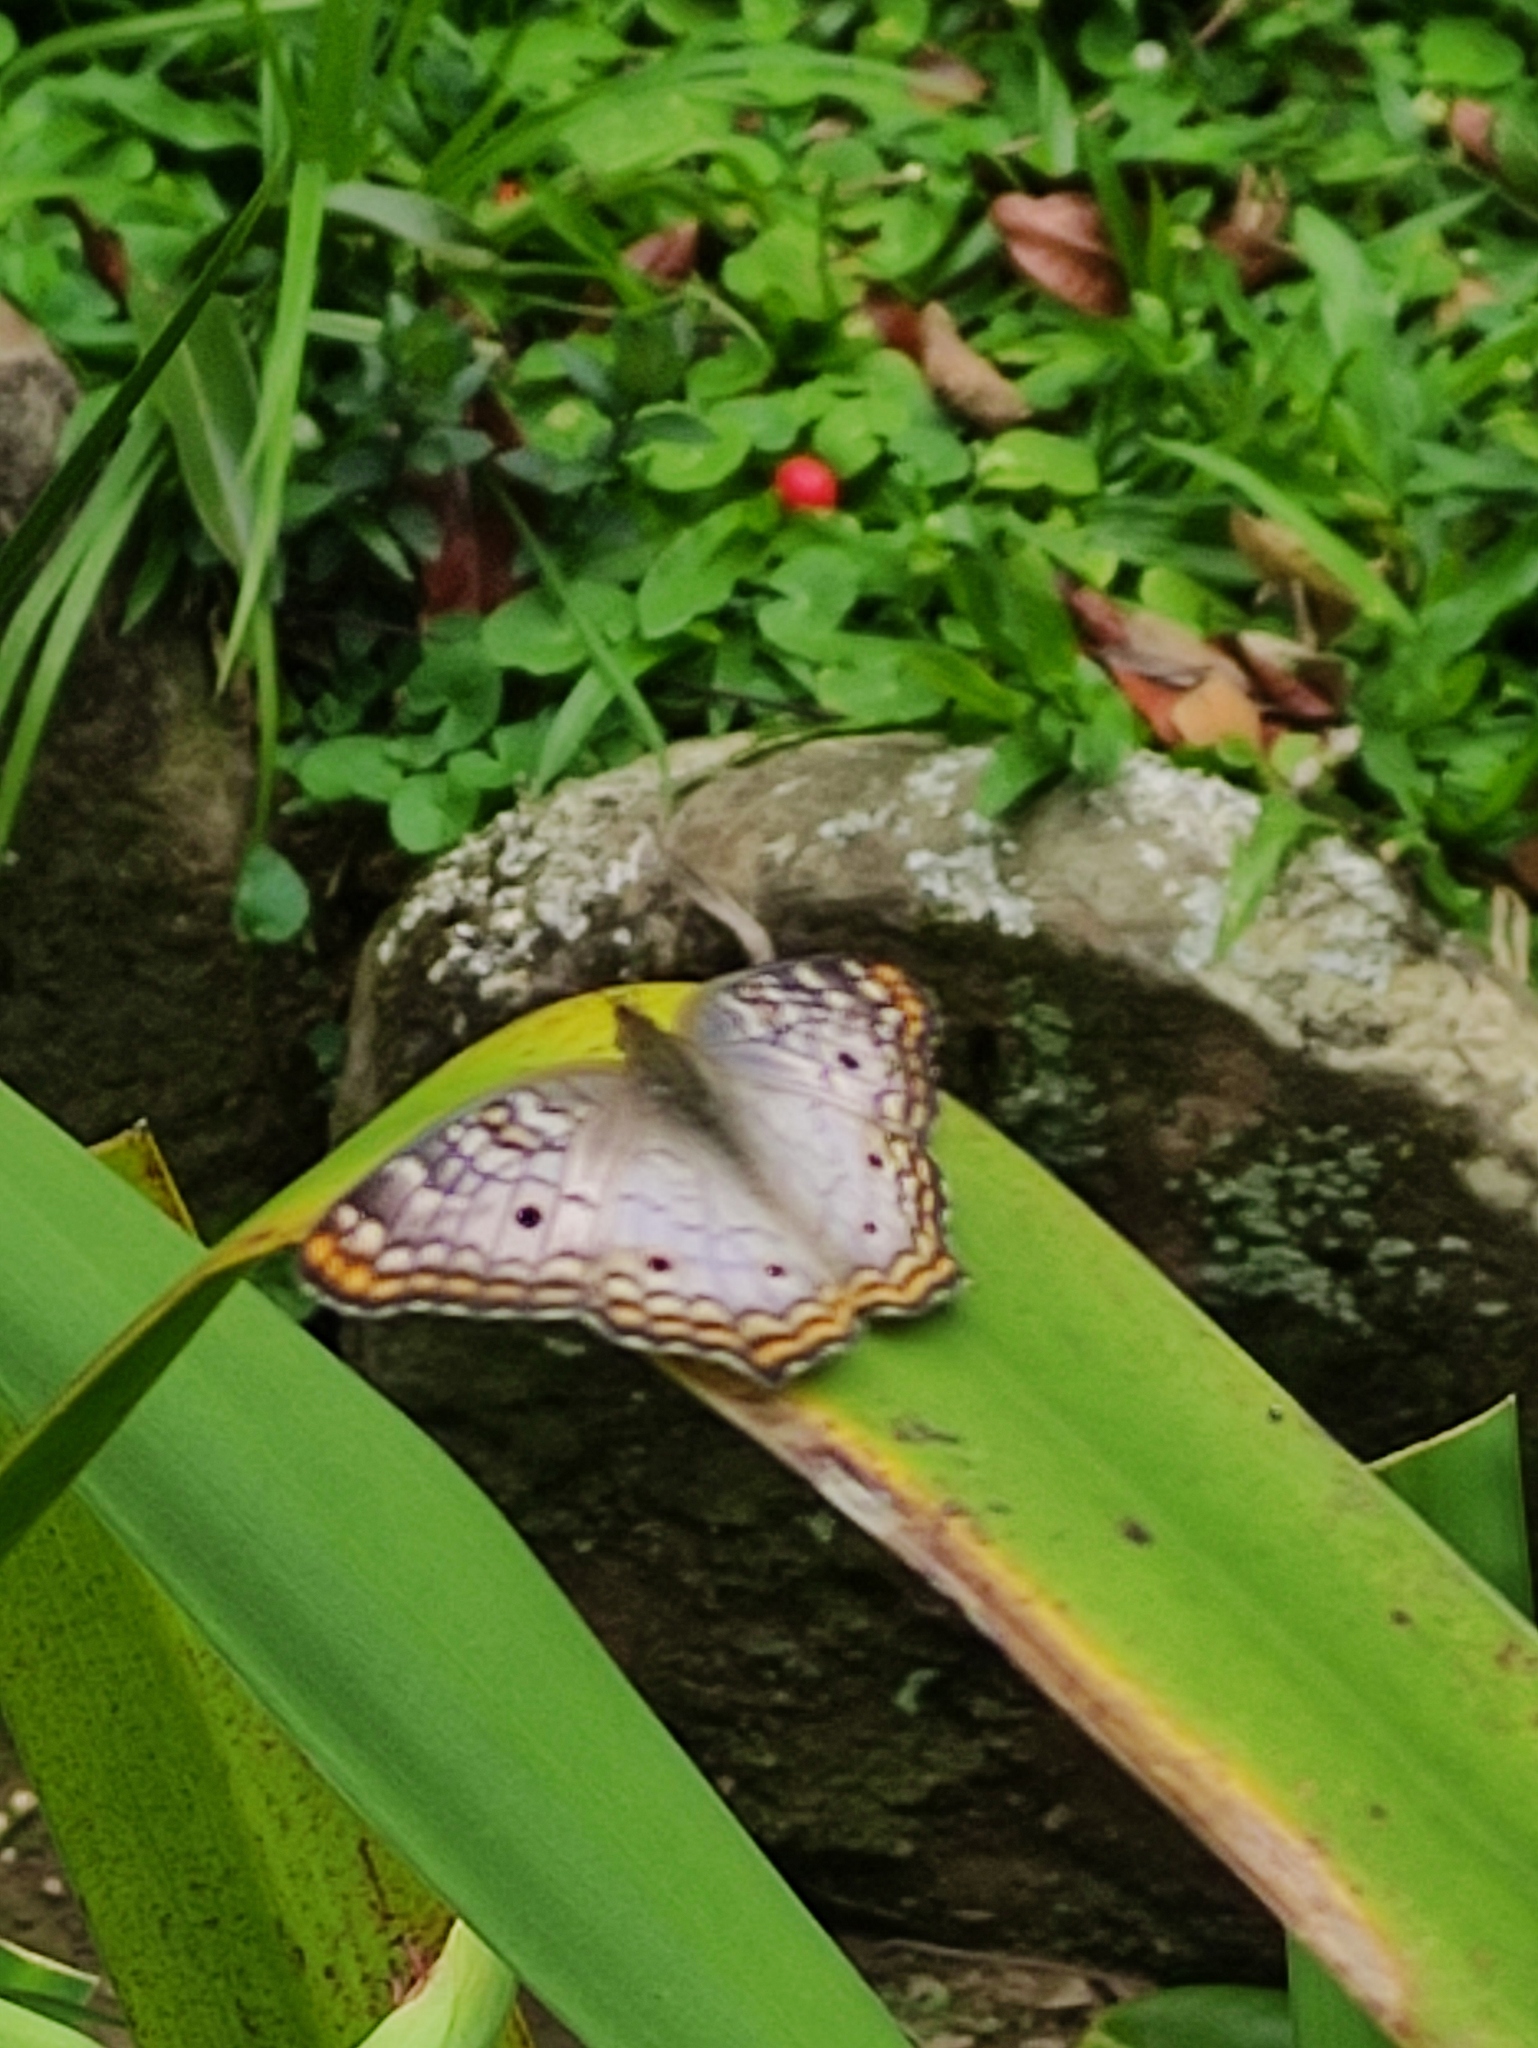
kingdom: Animalia
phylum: Arthropoda
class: Insecta
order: Lepidoptera
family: Nymphalidae
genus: Anartia
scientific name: Anartia jatrophae
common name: White peacock
